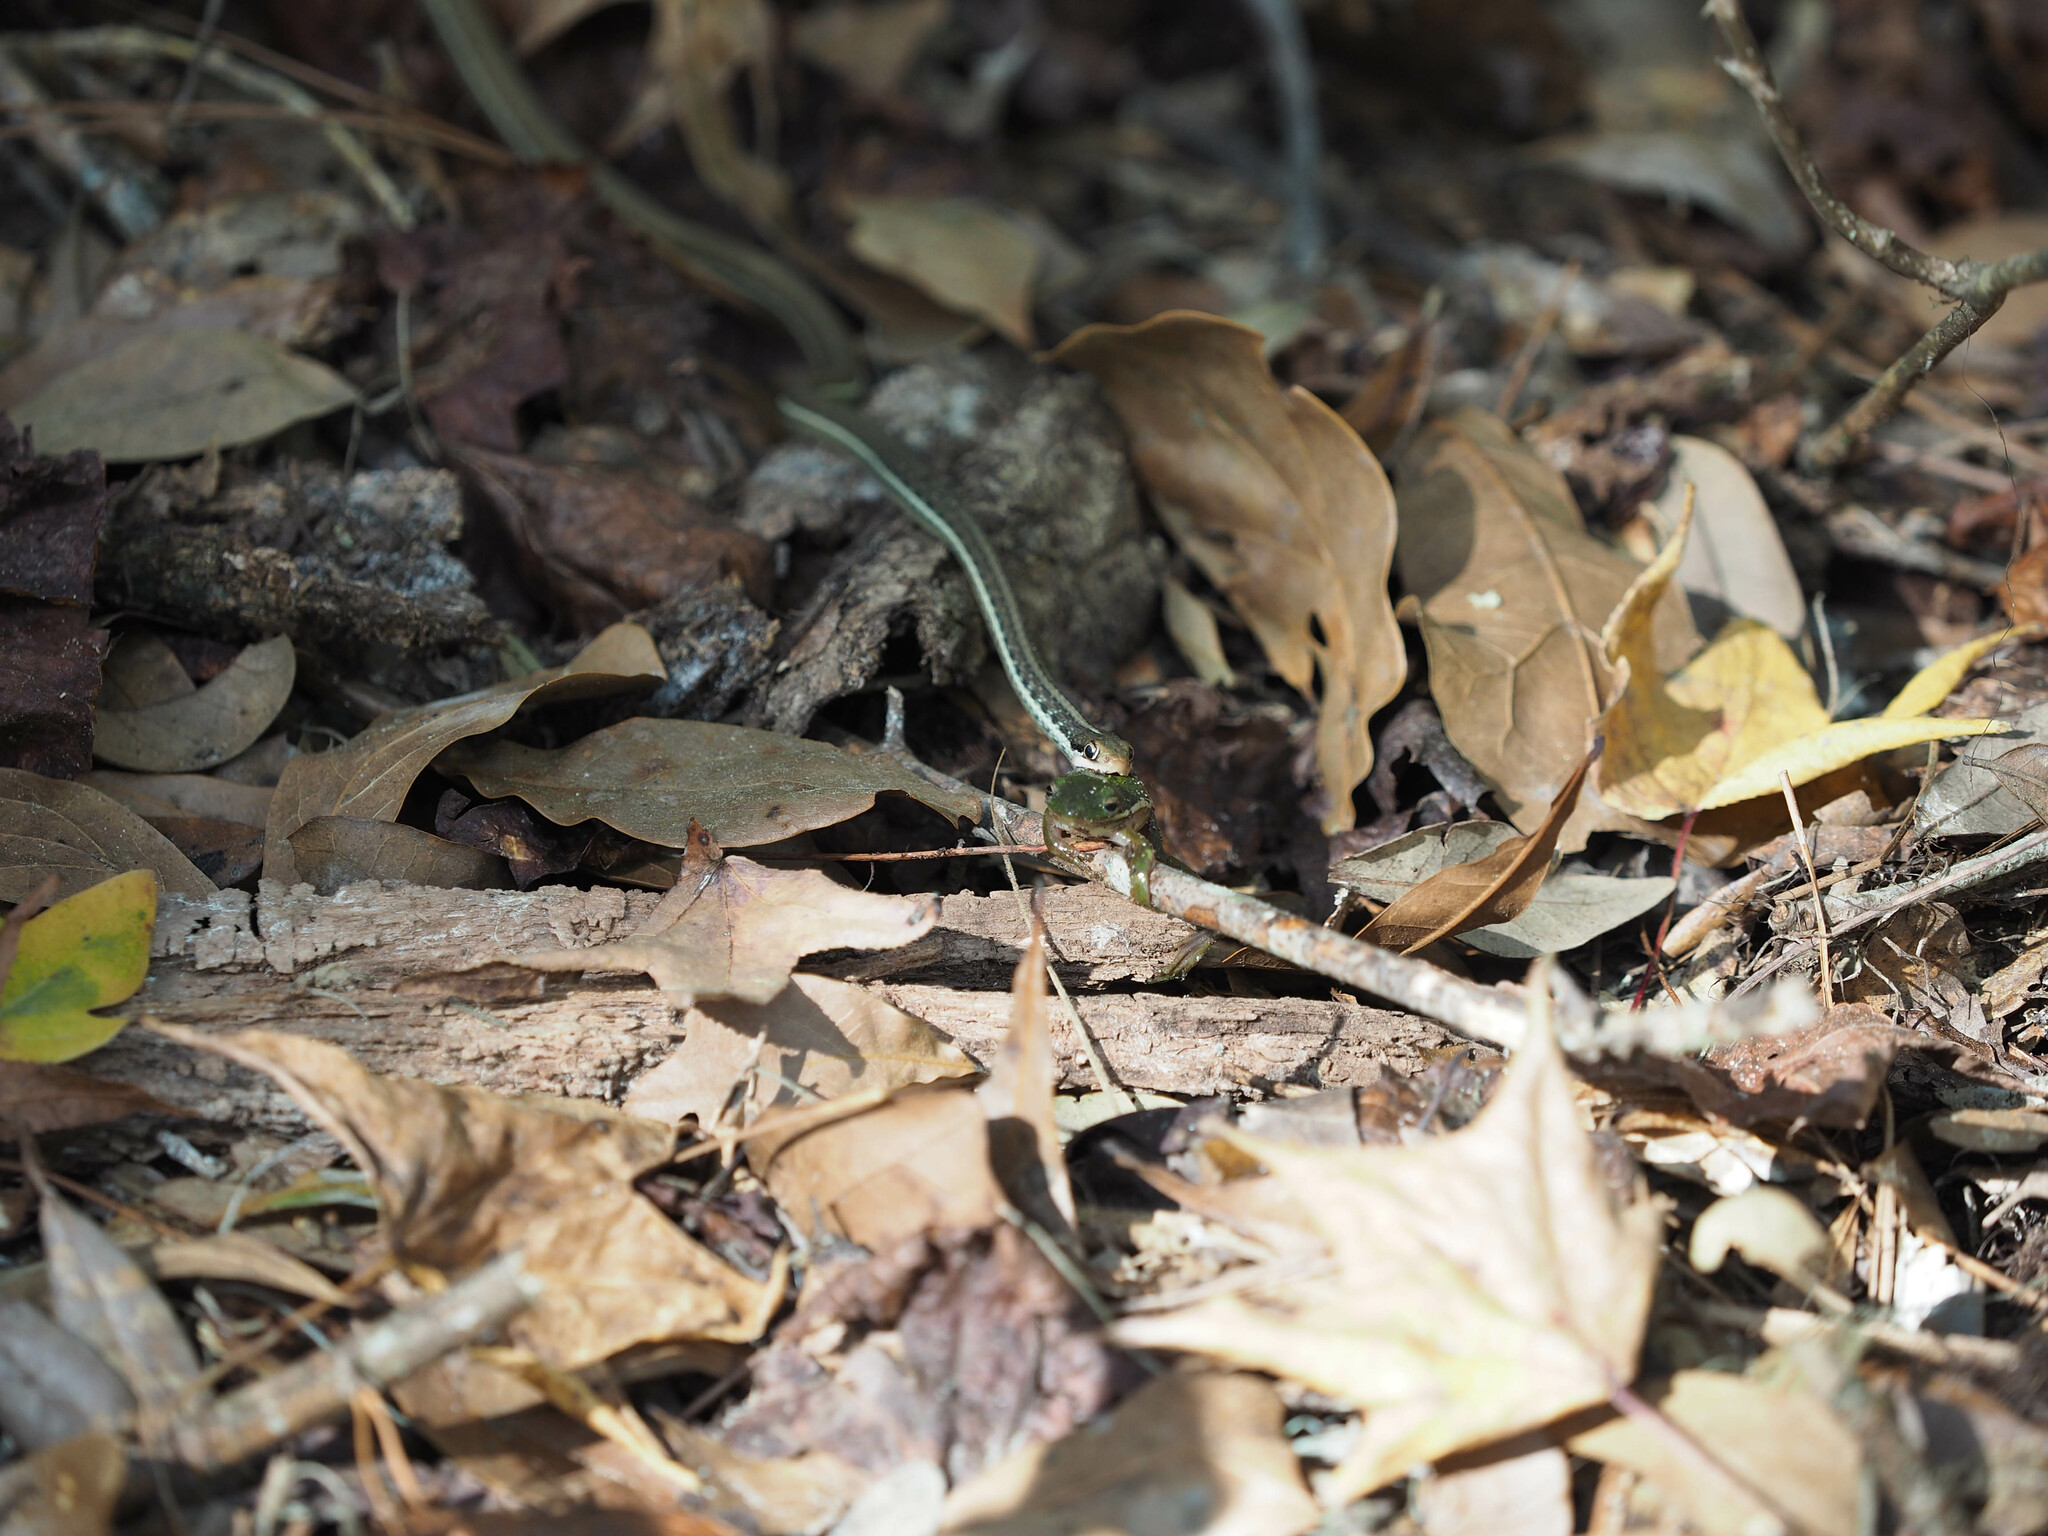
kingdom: Animalia
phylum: Chordata
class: Squamata
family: Colubridae
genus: Thamnophis
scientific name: Thamnophis saurita
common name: Eastern ribbonsnake
